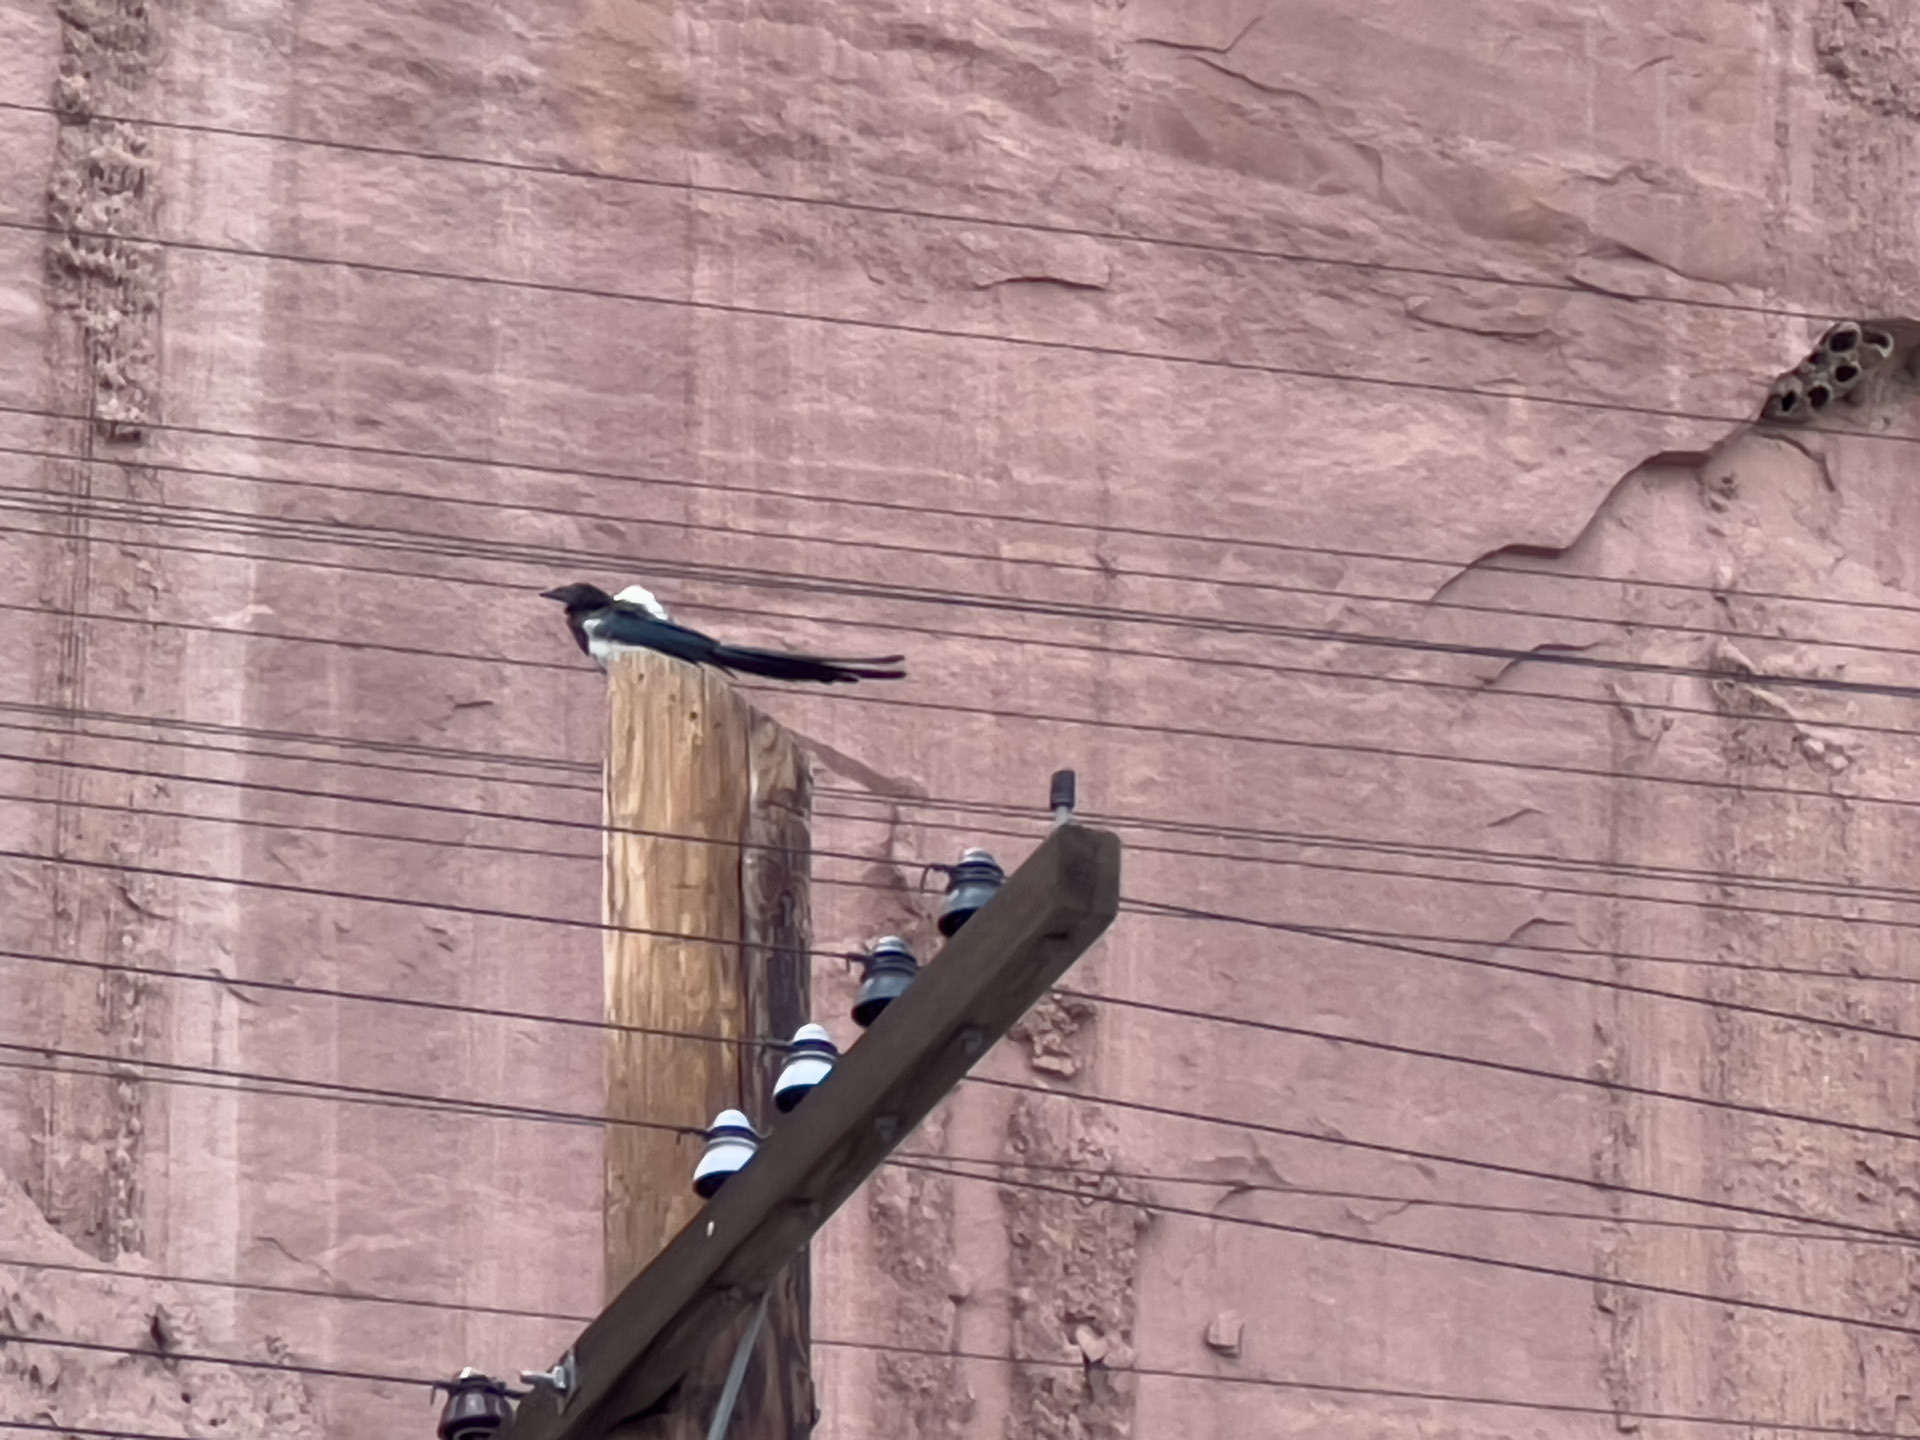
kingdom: Animalia
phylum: Chordata
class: Aves
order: Passeriformes
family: Corvidae
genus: Pica
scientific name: Pica hudsonia
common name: Black-billed magpie
